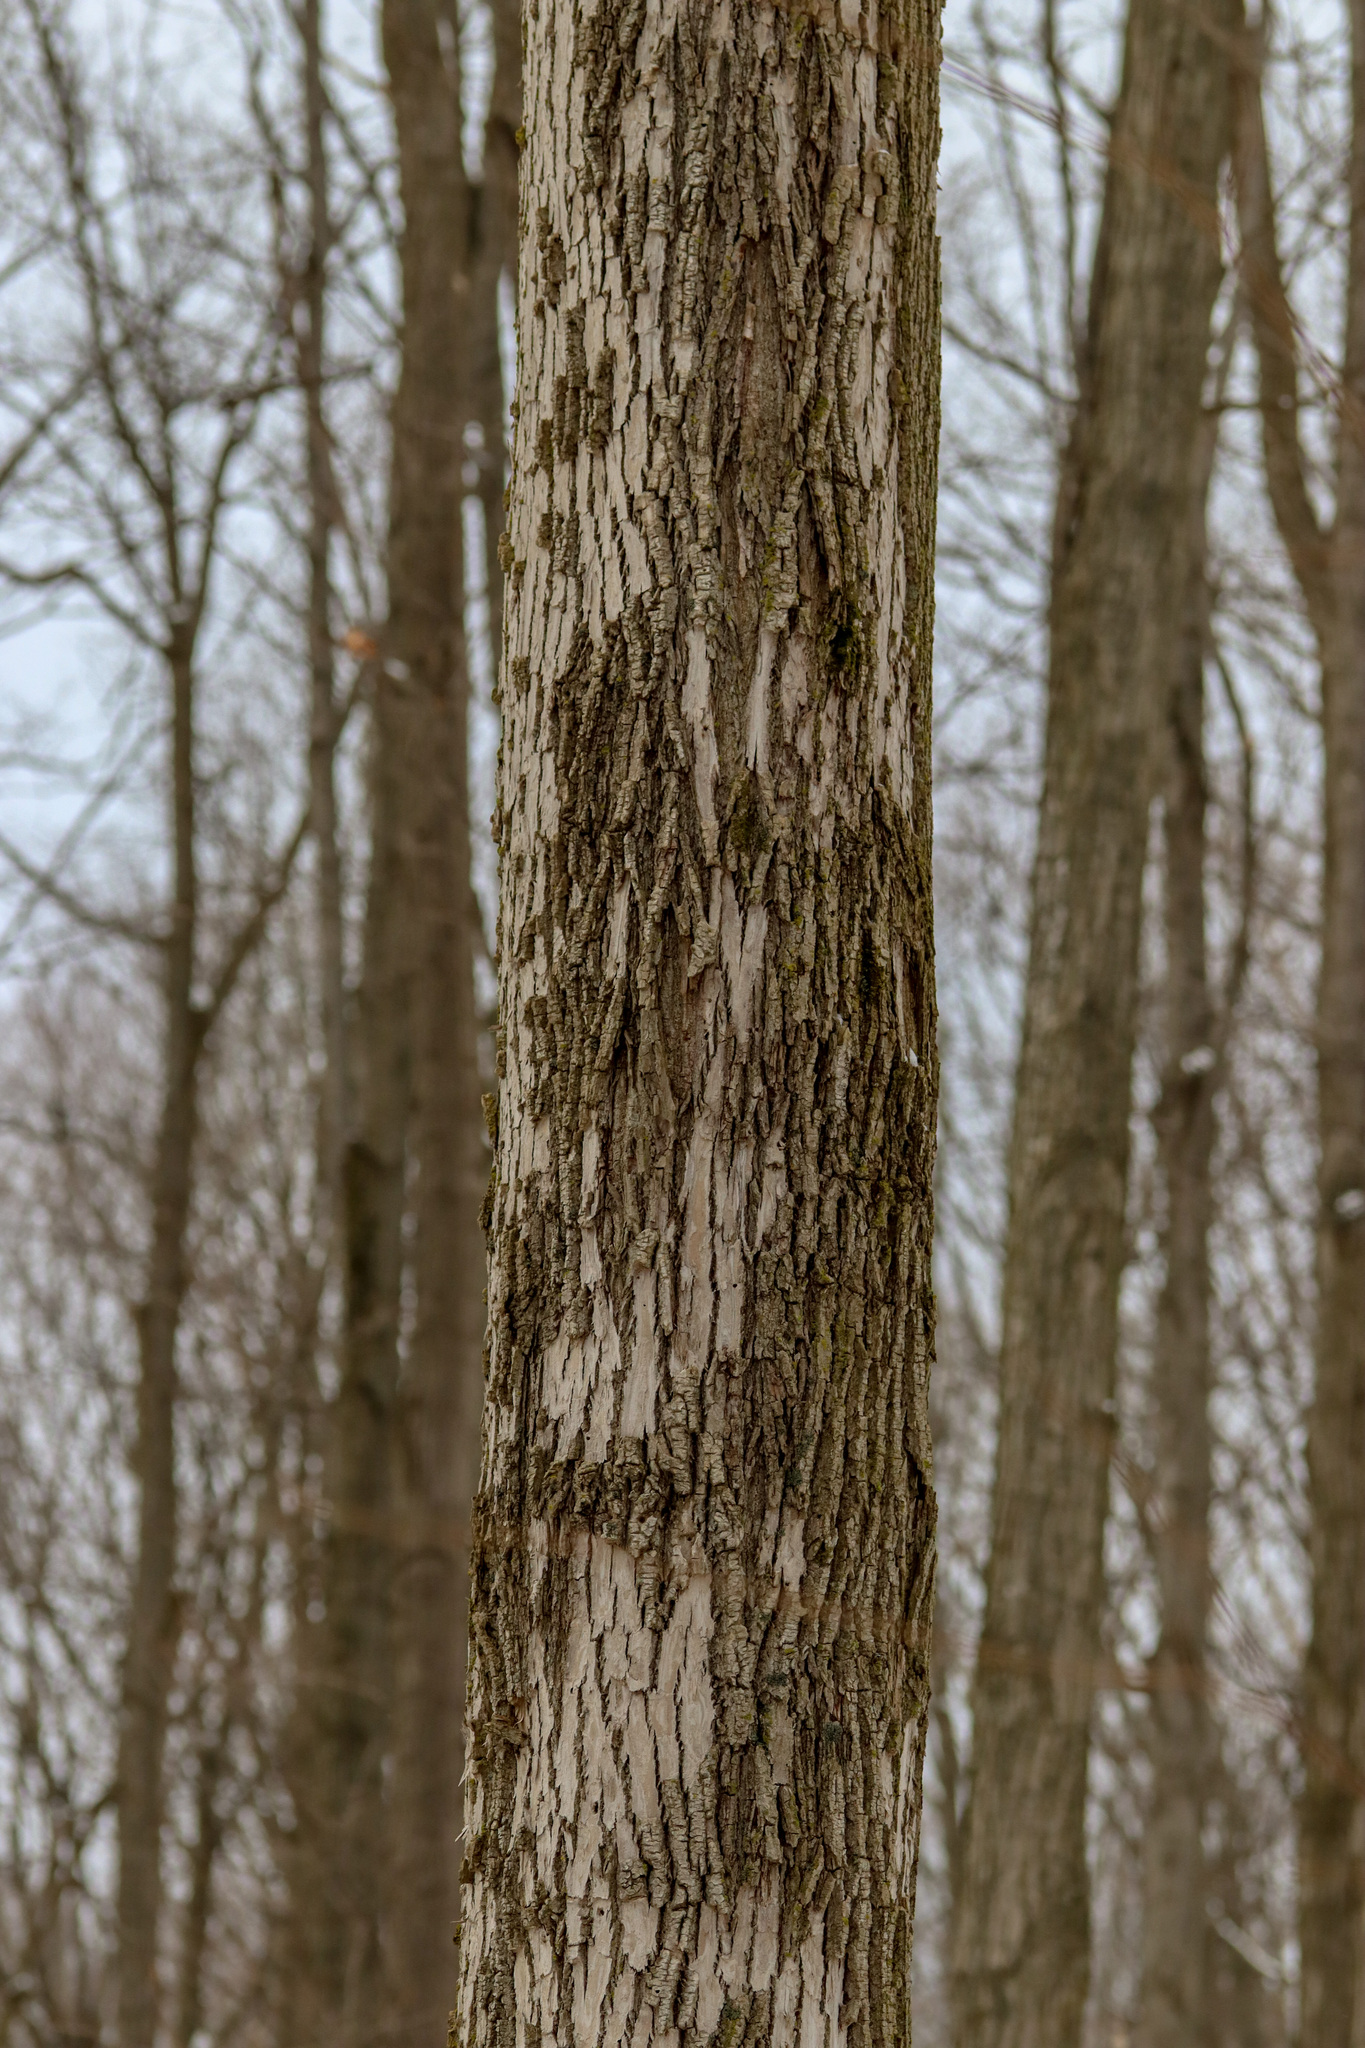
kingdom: Animalia
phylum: Arthropoda
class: Insecta
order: Coleoptera
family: Buprestidae
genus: Agrilus
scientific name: Agrilus planipennis
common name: Emerald ash borer
